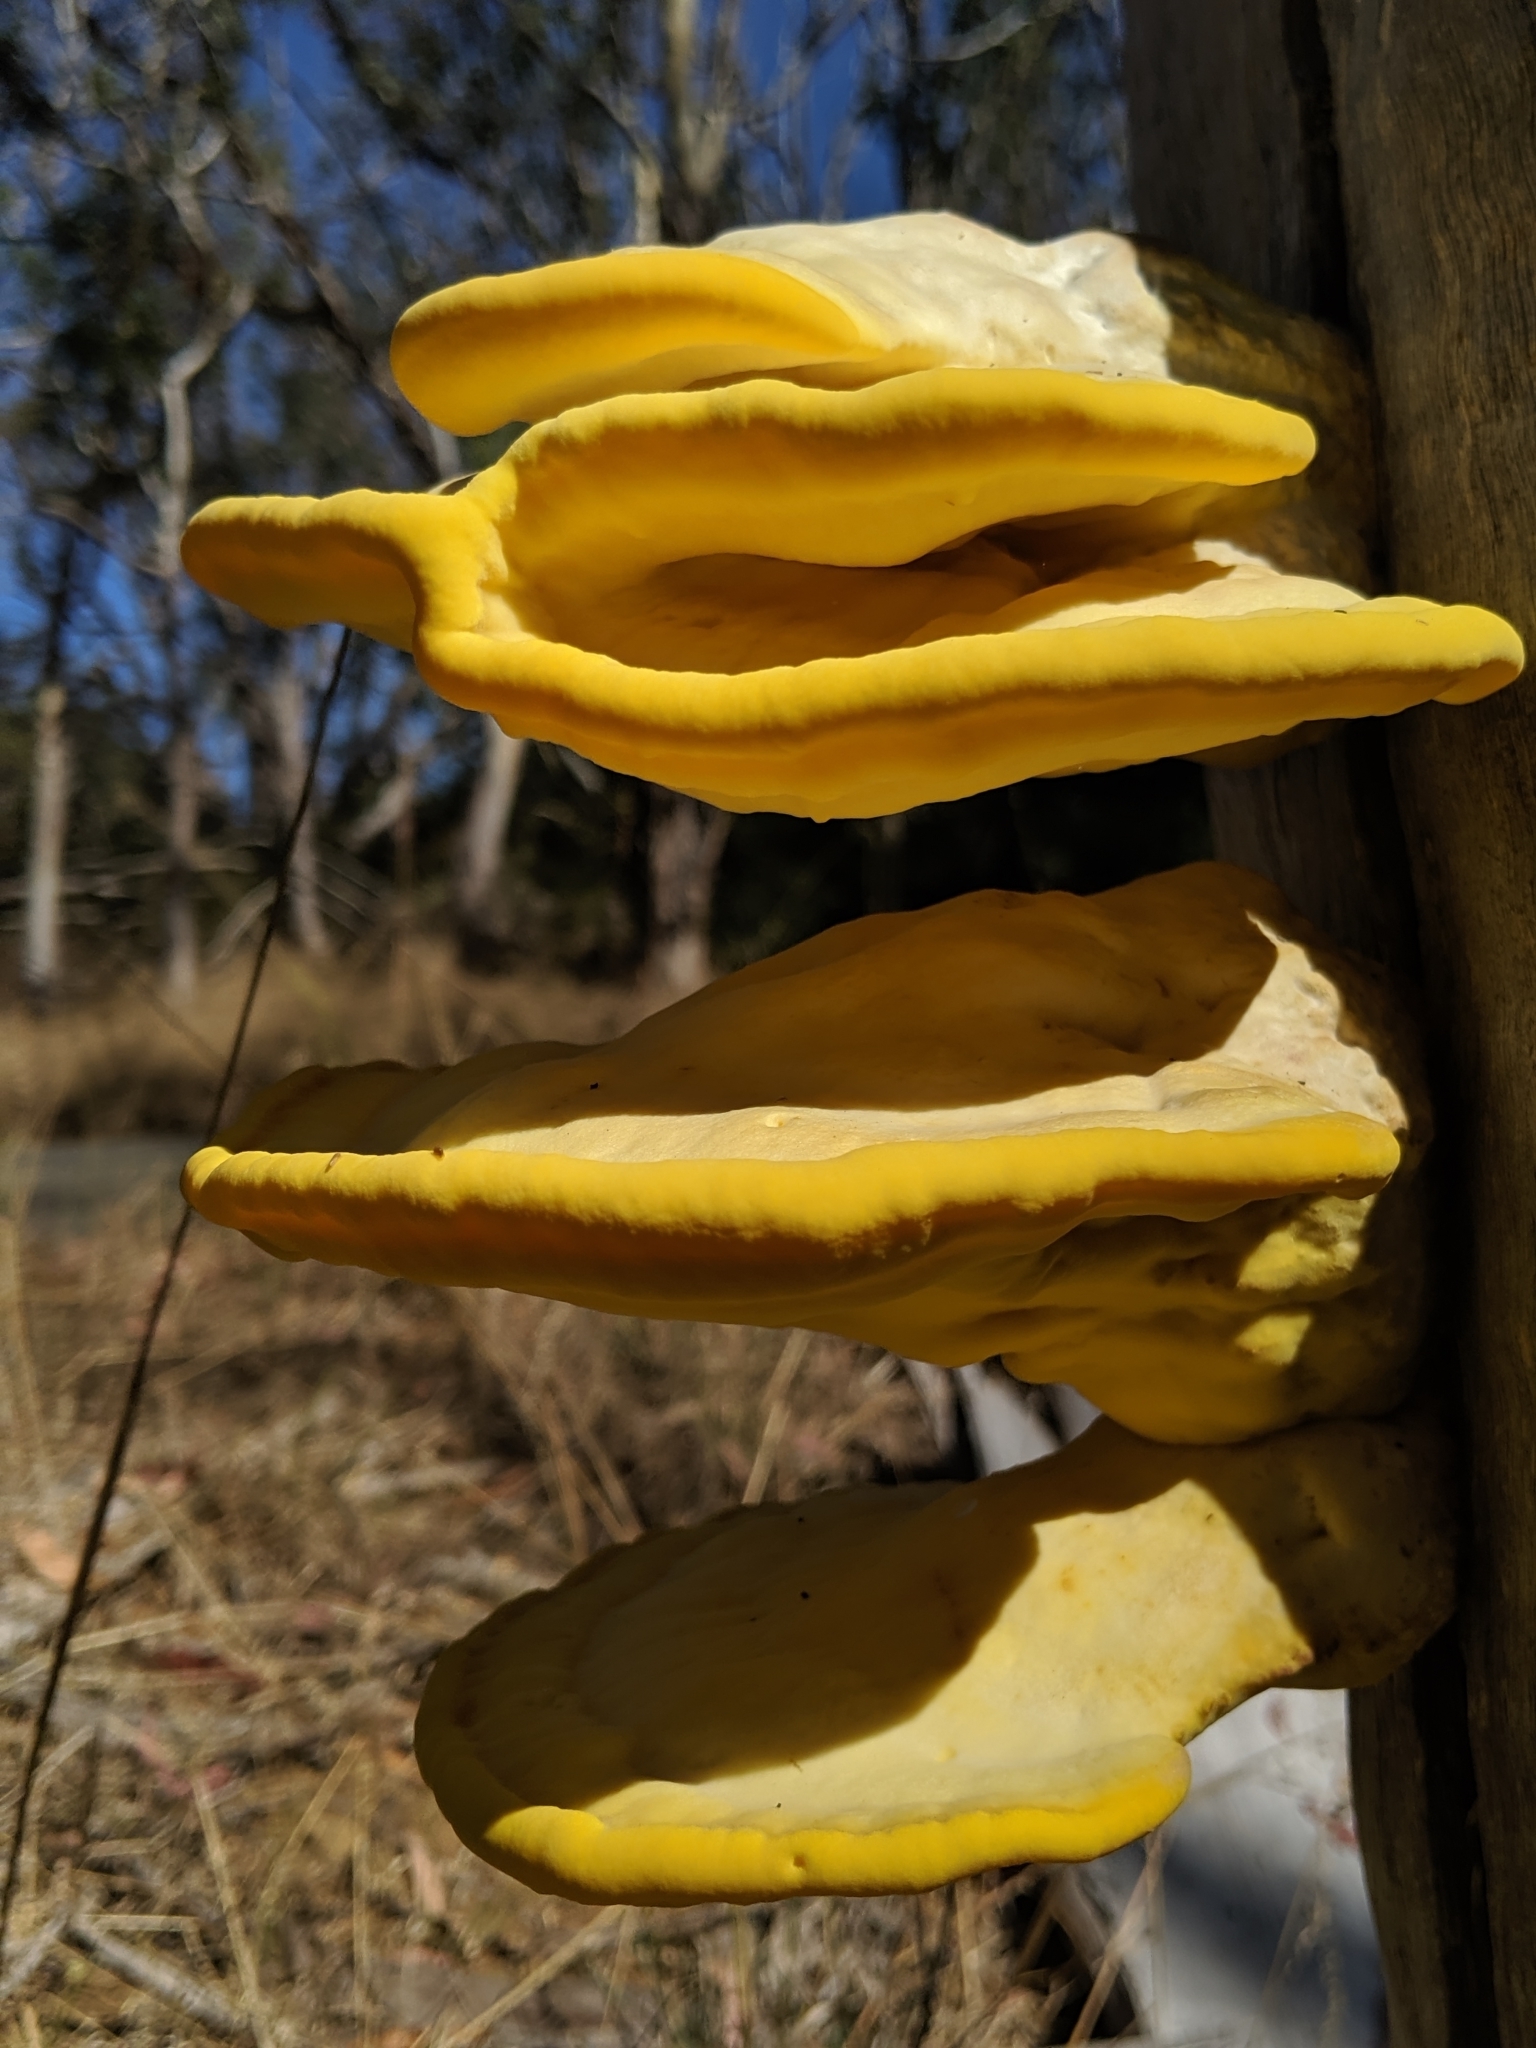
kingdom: Fungi
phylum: Basidiomycota
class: Agaricomycetes
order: Polyporales
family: Laetiporaceae
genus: Laetiporus
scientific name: Laetiporus gilbertsonii
